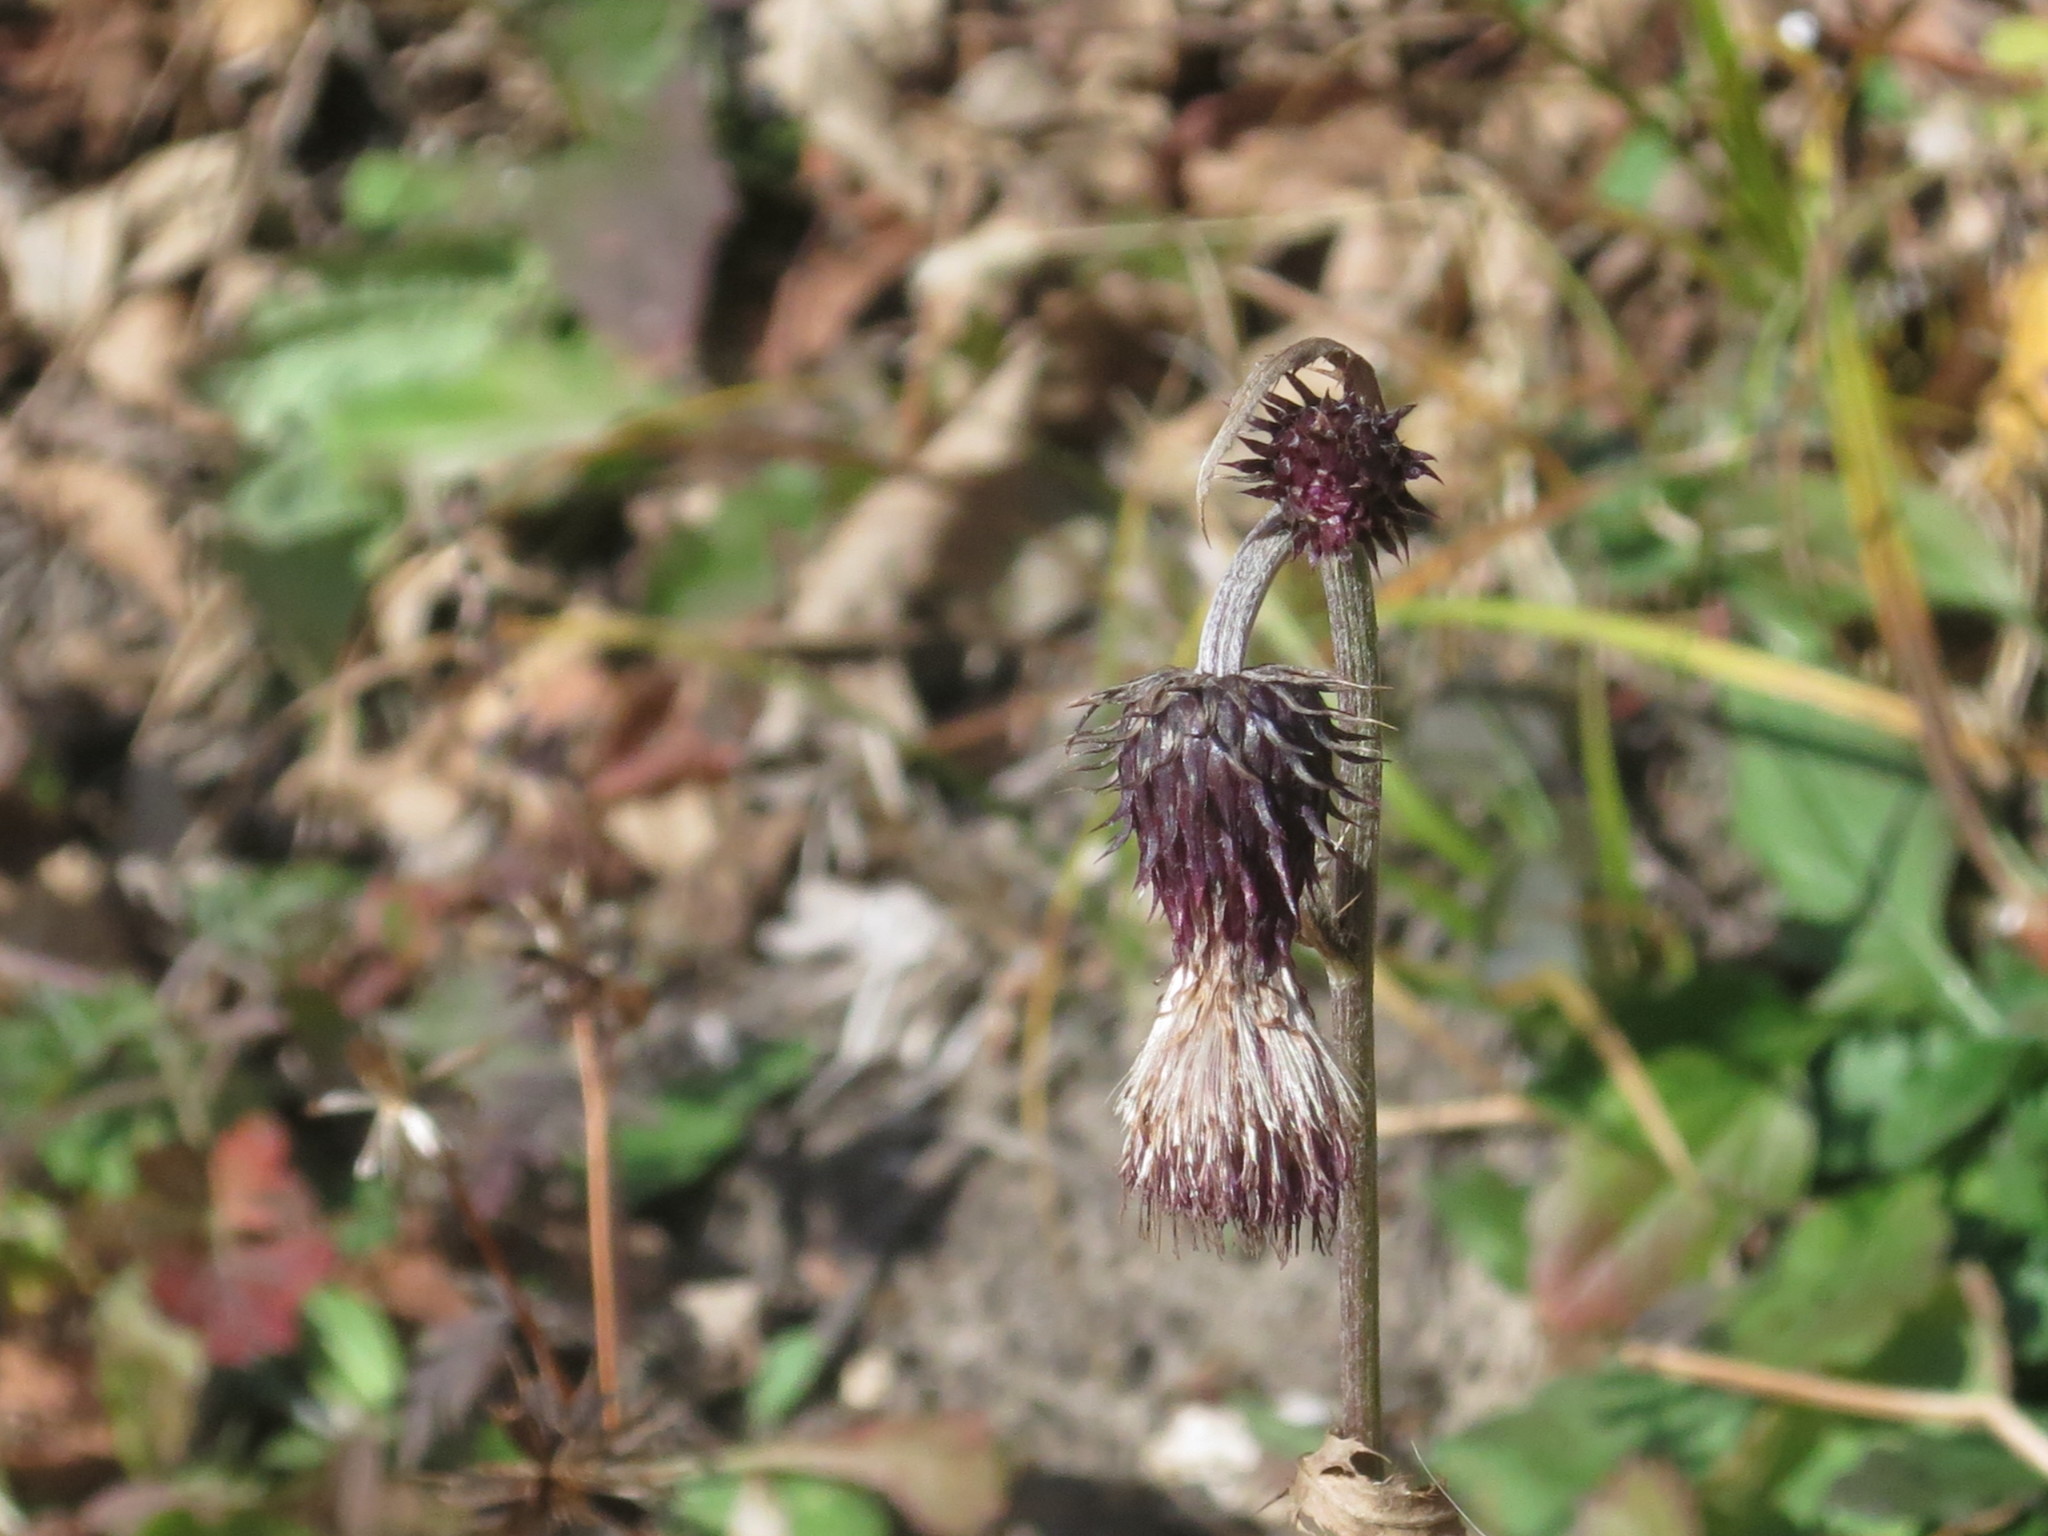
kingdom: Plantae
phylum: Tracheophyta
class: Magnoliopsida
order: Asterales
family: Asteraceae
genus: Cirsium
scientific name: Cirsium pendulum
